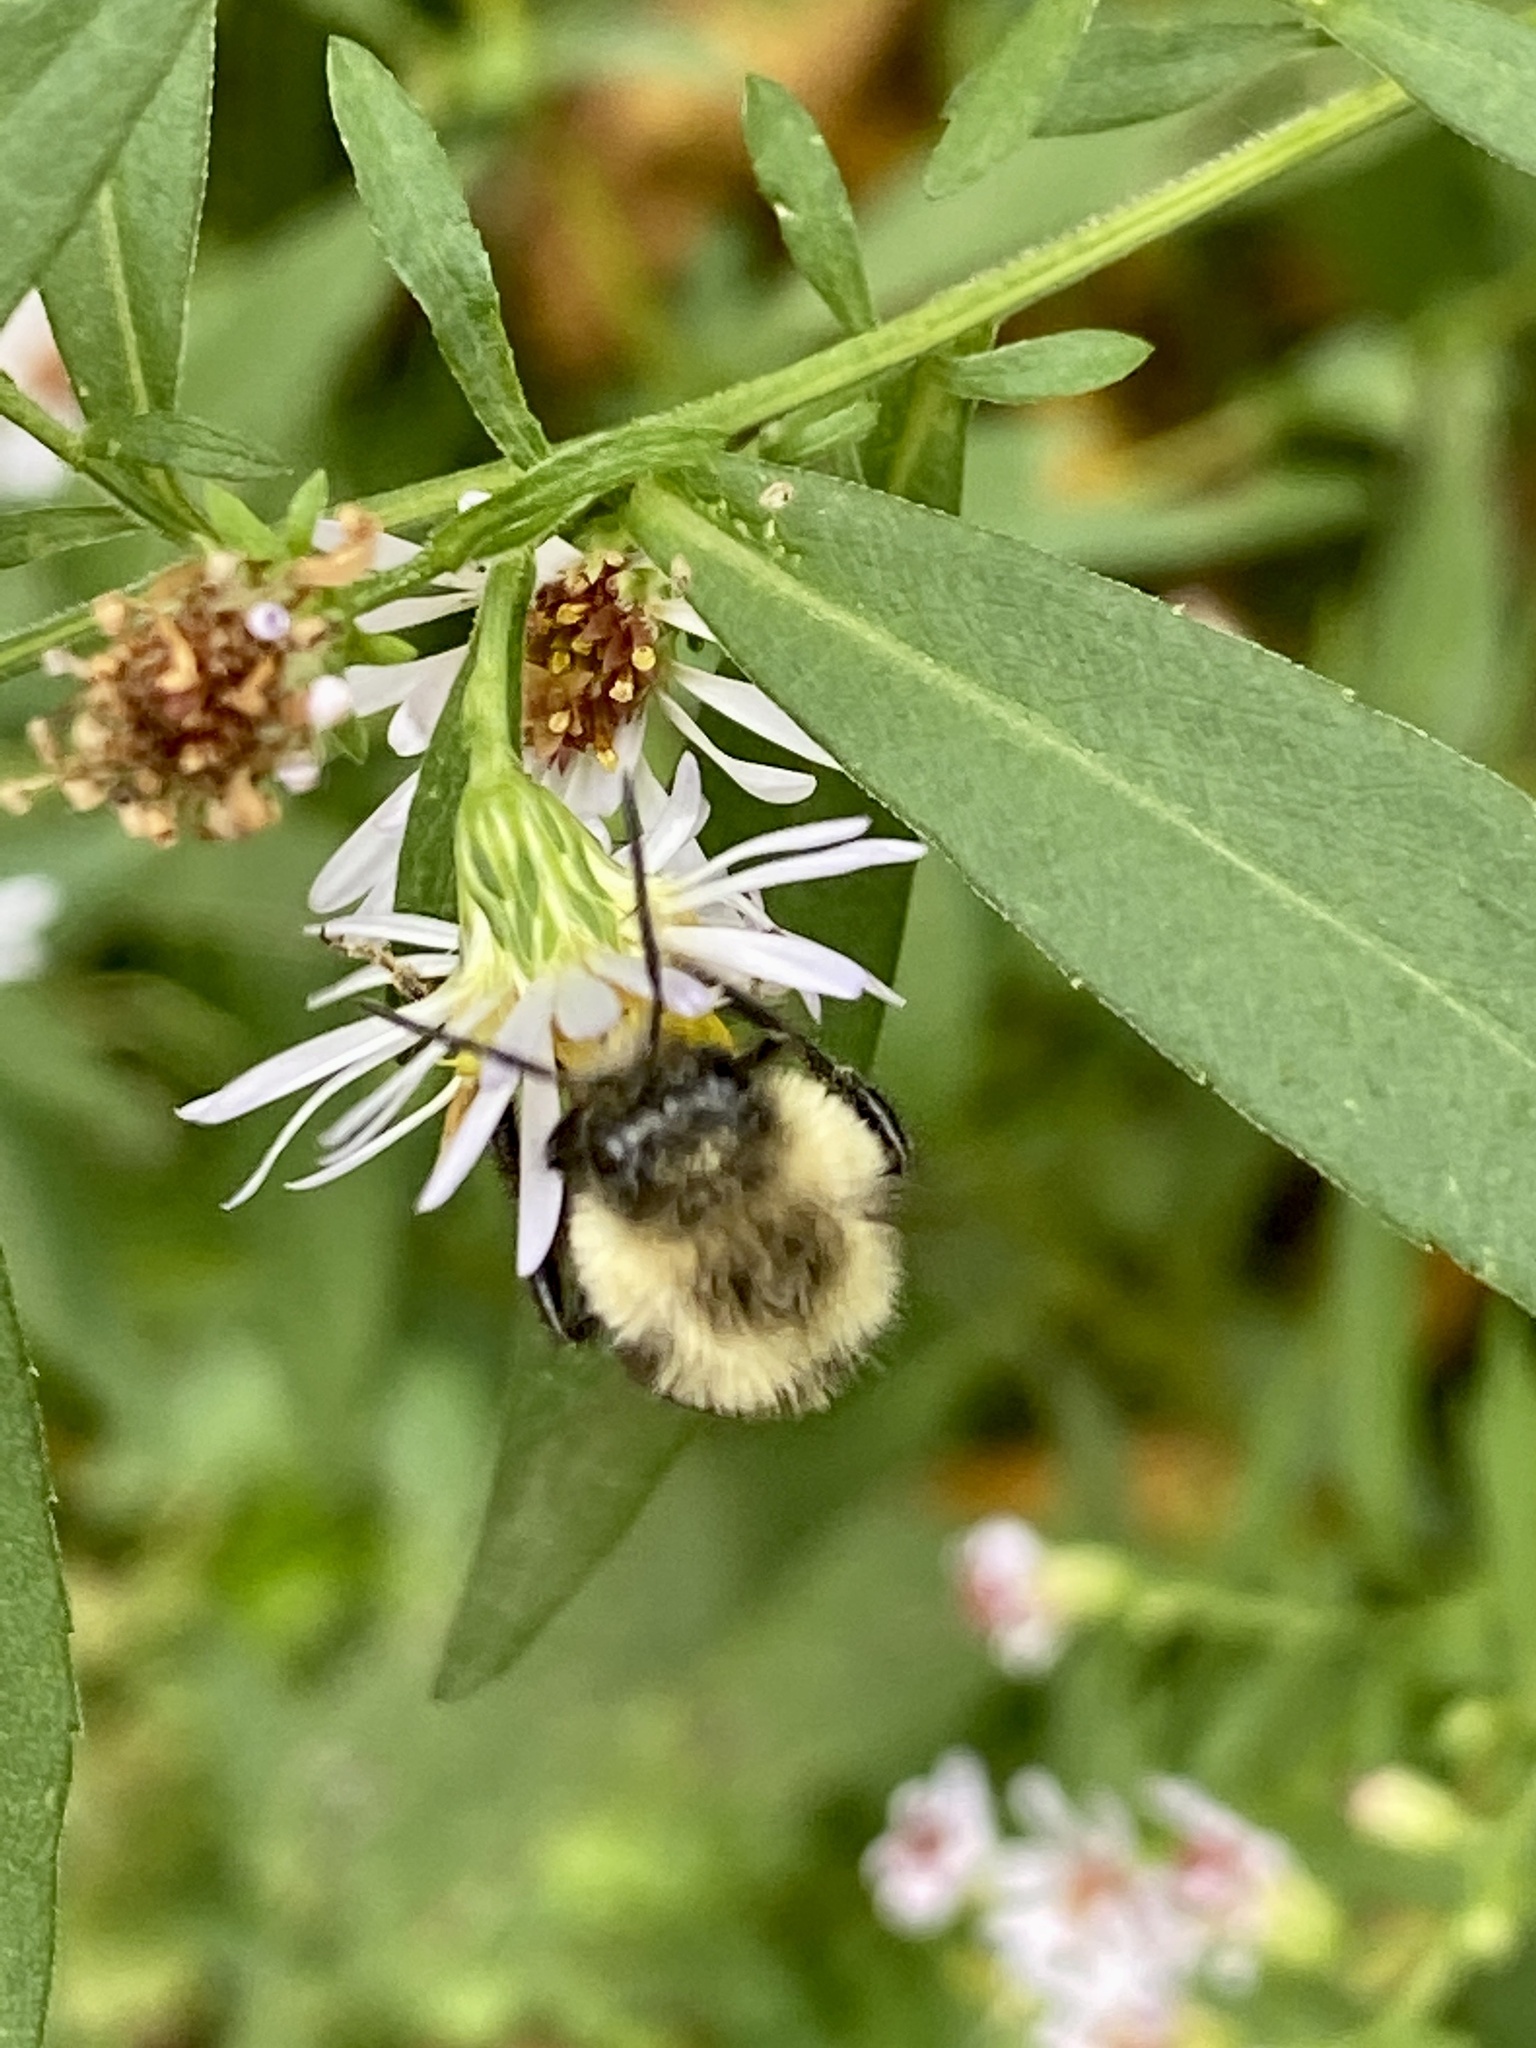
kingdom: Animalia
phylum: Arthropoda
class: Insecta
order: Hymenoptera
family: Apidae
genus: Bombus
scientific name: Bombus impatiens
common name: Common eastern bumble bee
